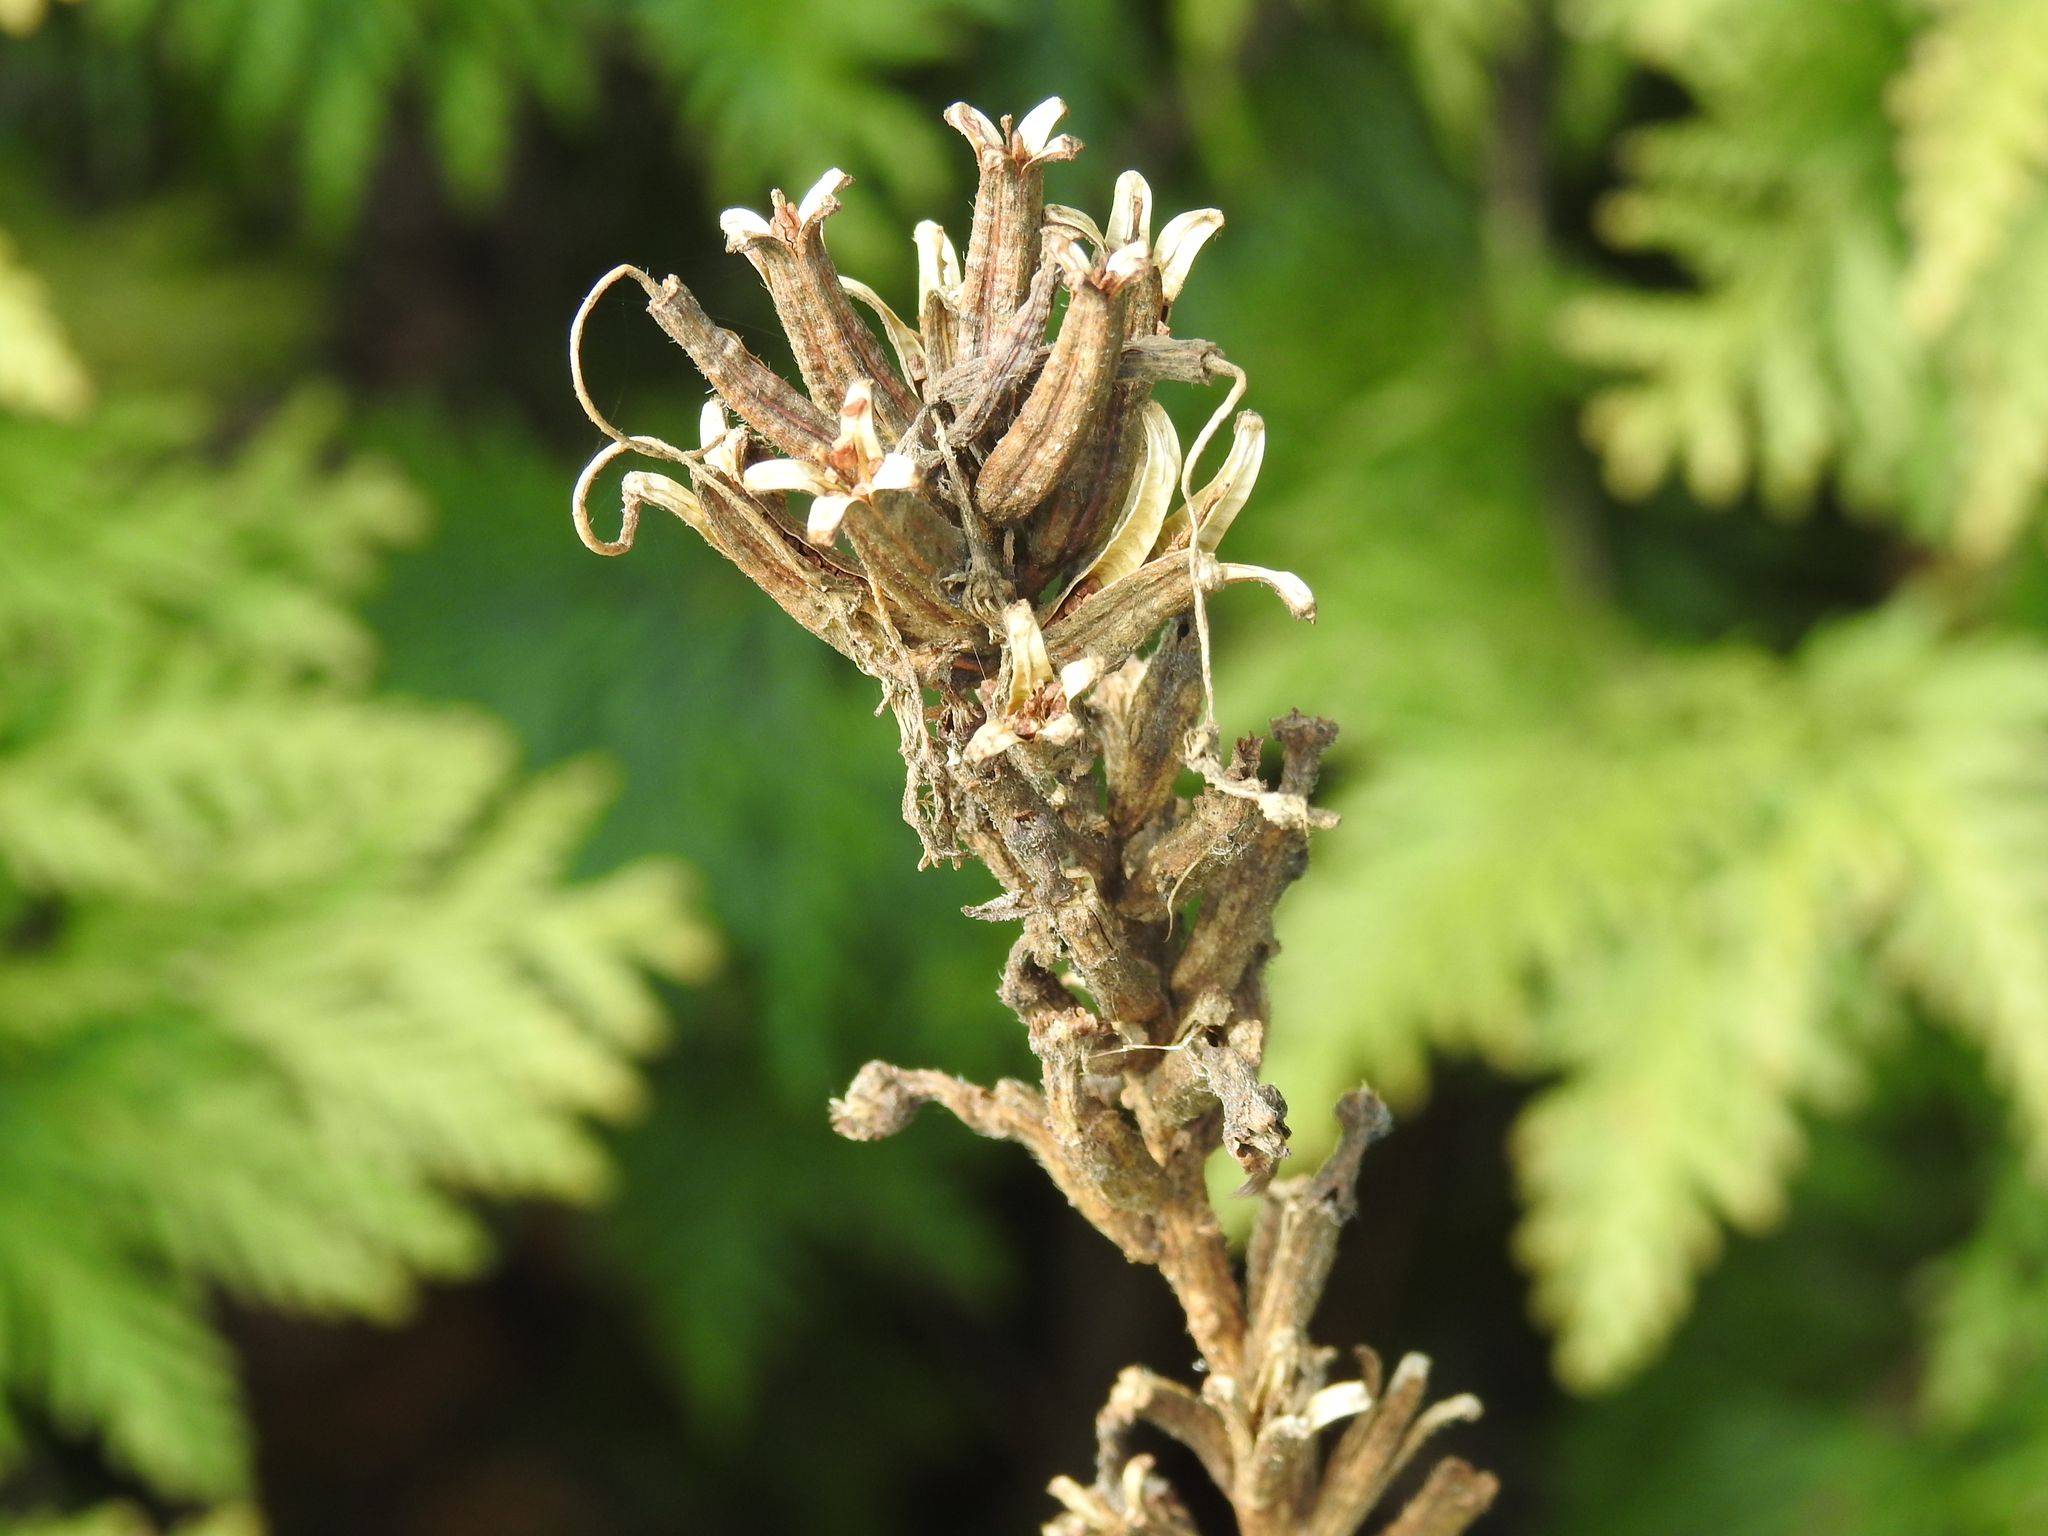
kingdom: Plantae
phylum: Tracheophyta
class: Magnoliopsida
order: Myrtales
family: Onagraceae
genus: Oenothera
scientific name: Oenothera biennis
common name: Common evening-primrose
